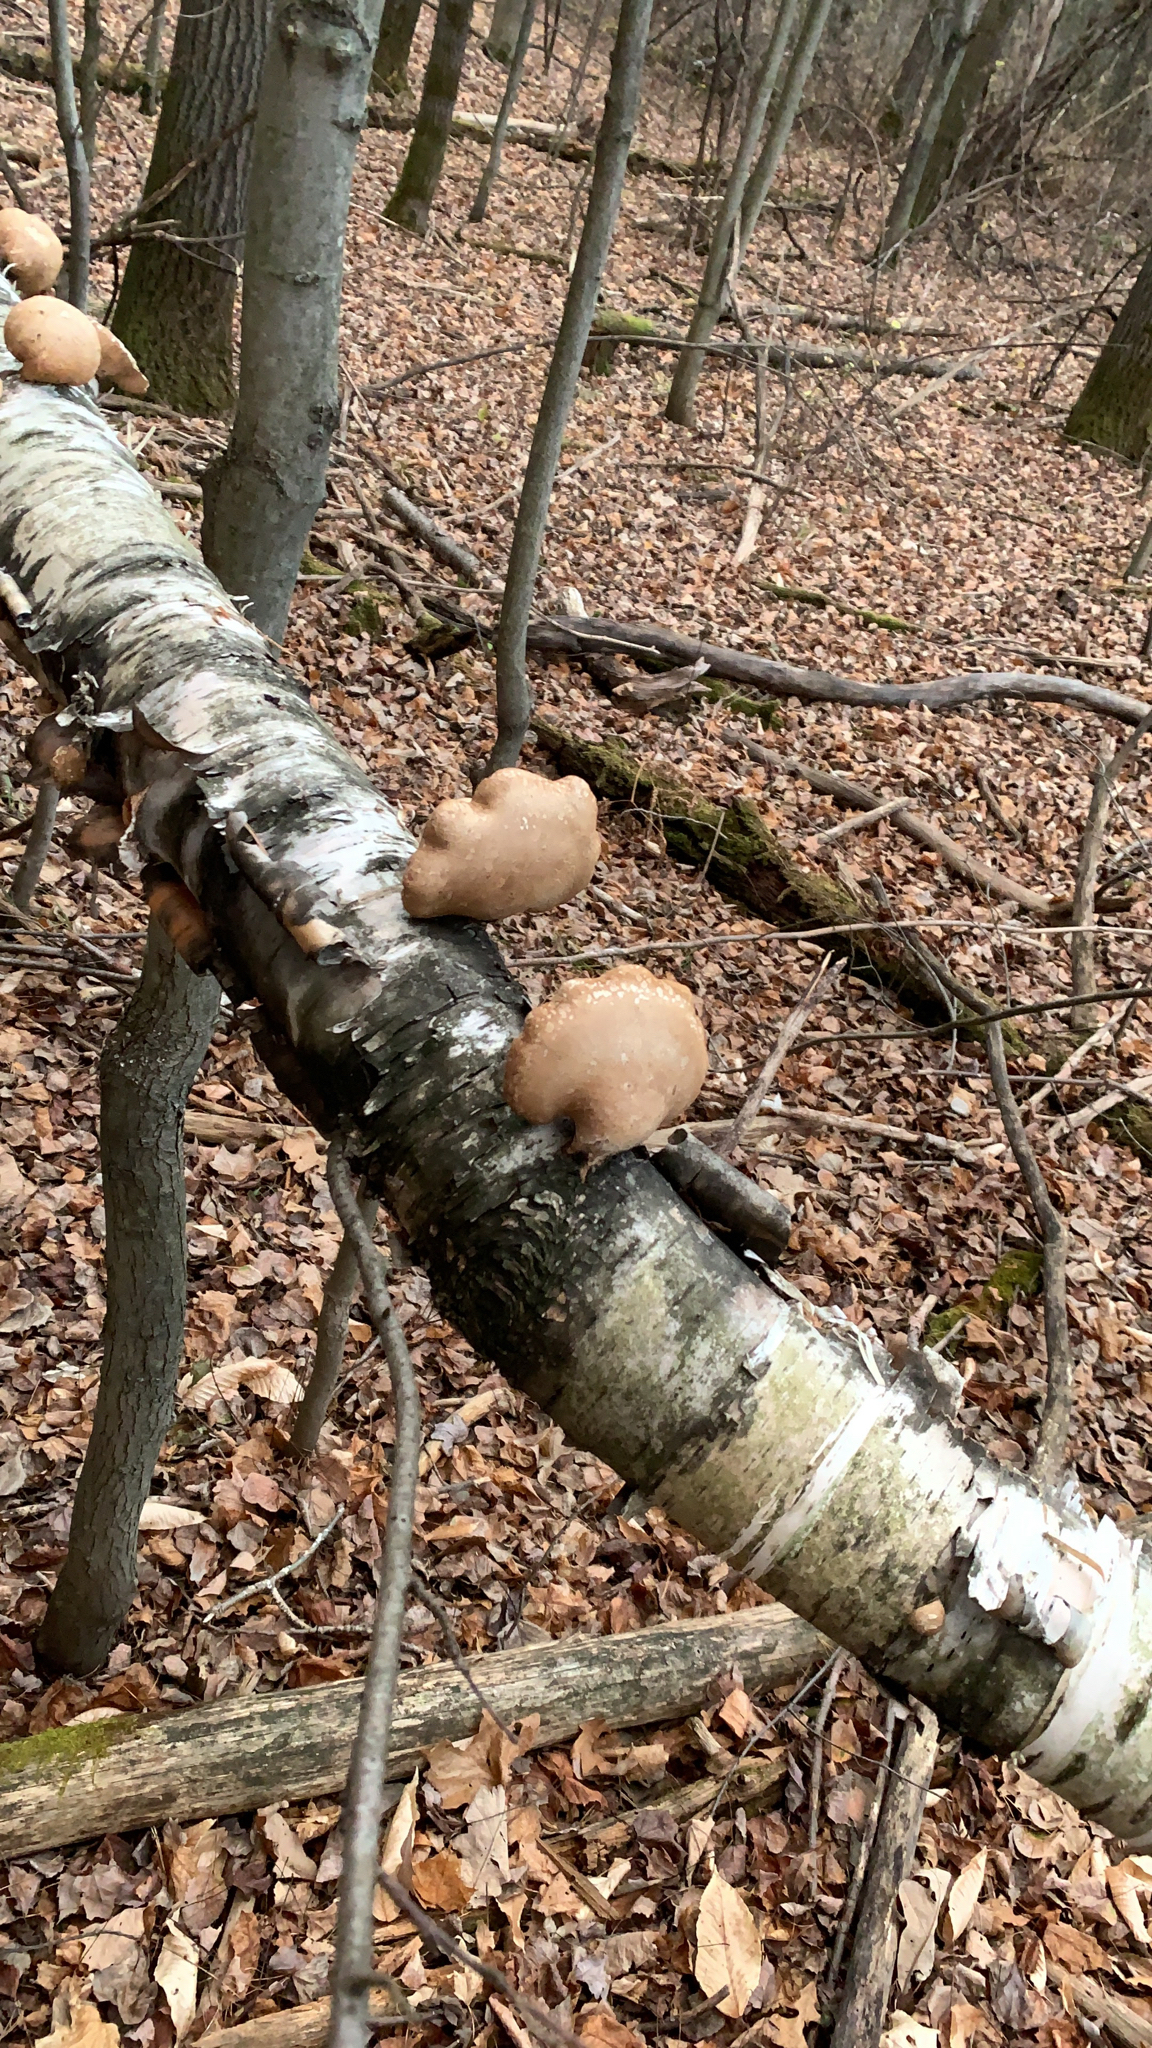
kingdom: Fungi
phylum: Basidiomycota
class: Agaricomycetes
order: Polyporales
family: Fomitopsidaceae
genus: Fomitopsis
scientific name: Fomitopsis betulina
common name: Birch polypore
